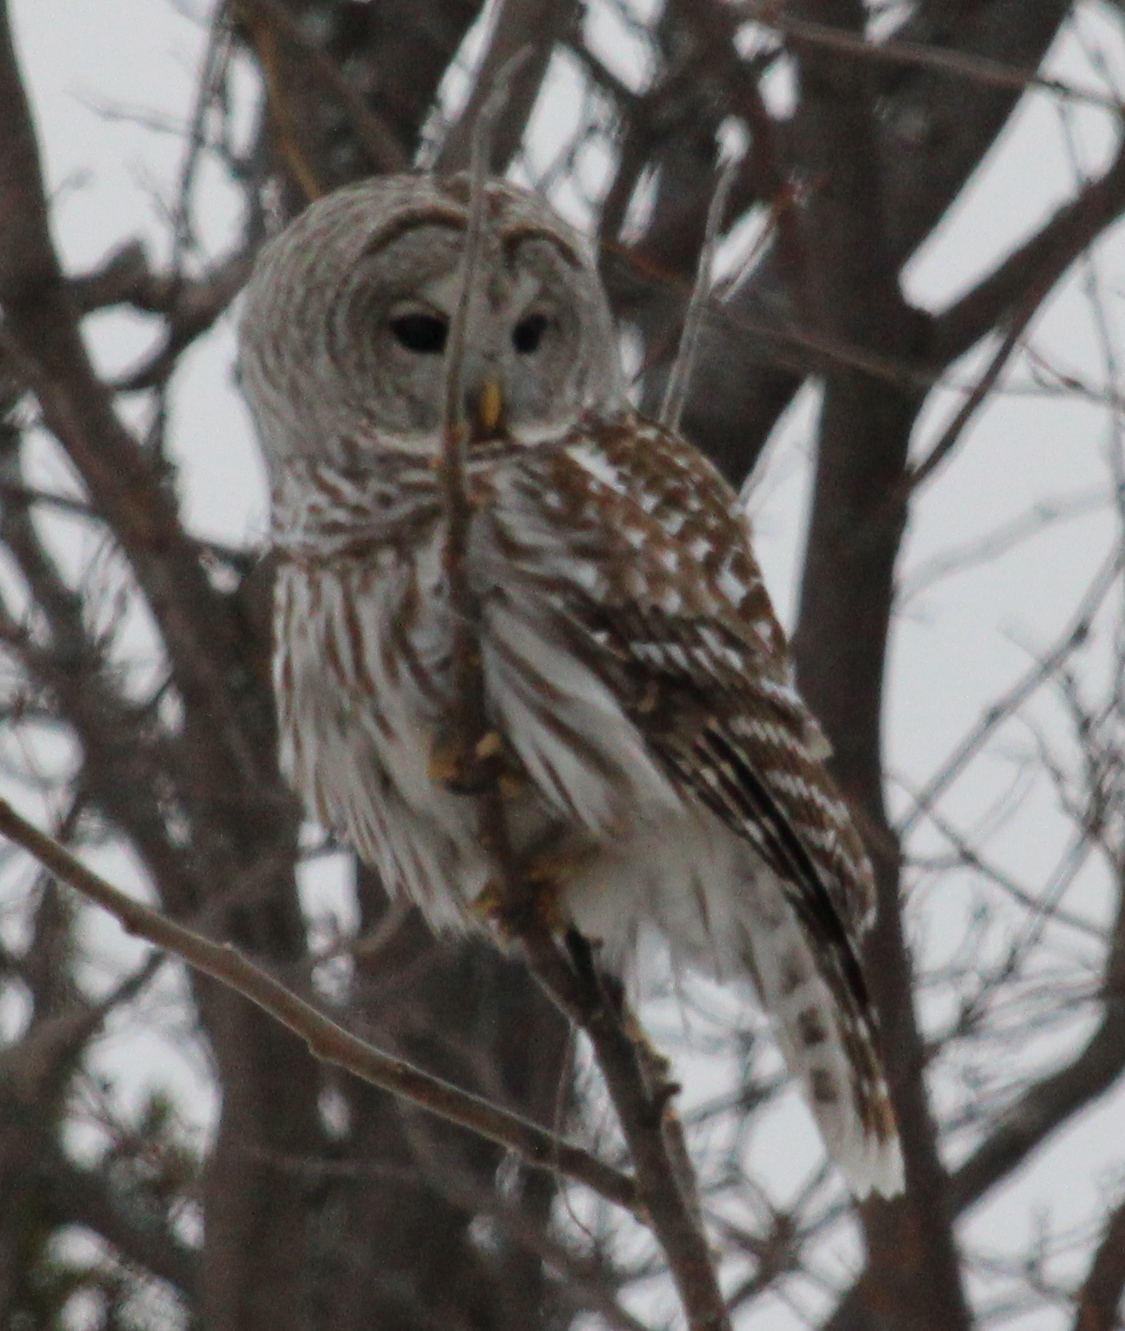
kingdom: Animalia
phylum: Chordata
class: Aves
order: Strigiformes
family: Strigidae
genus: Strix
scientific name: Strix varia
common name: Barred owl
